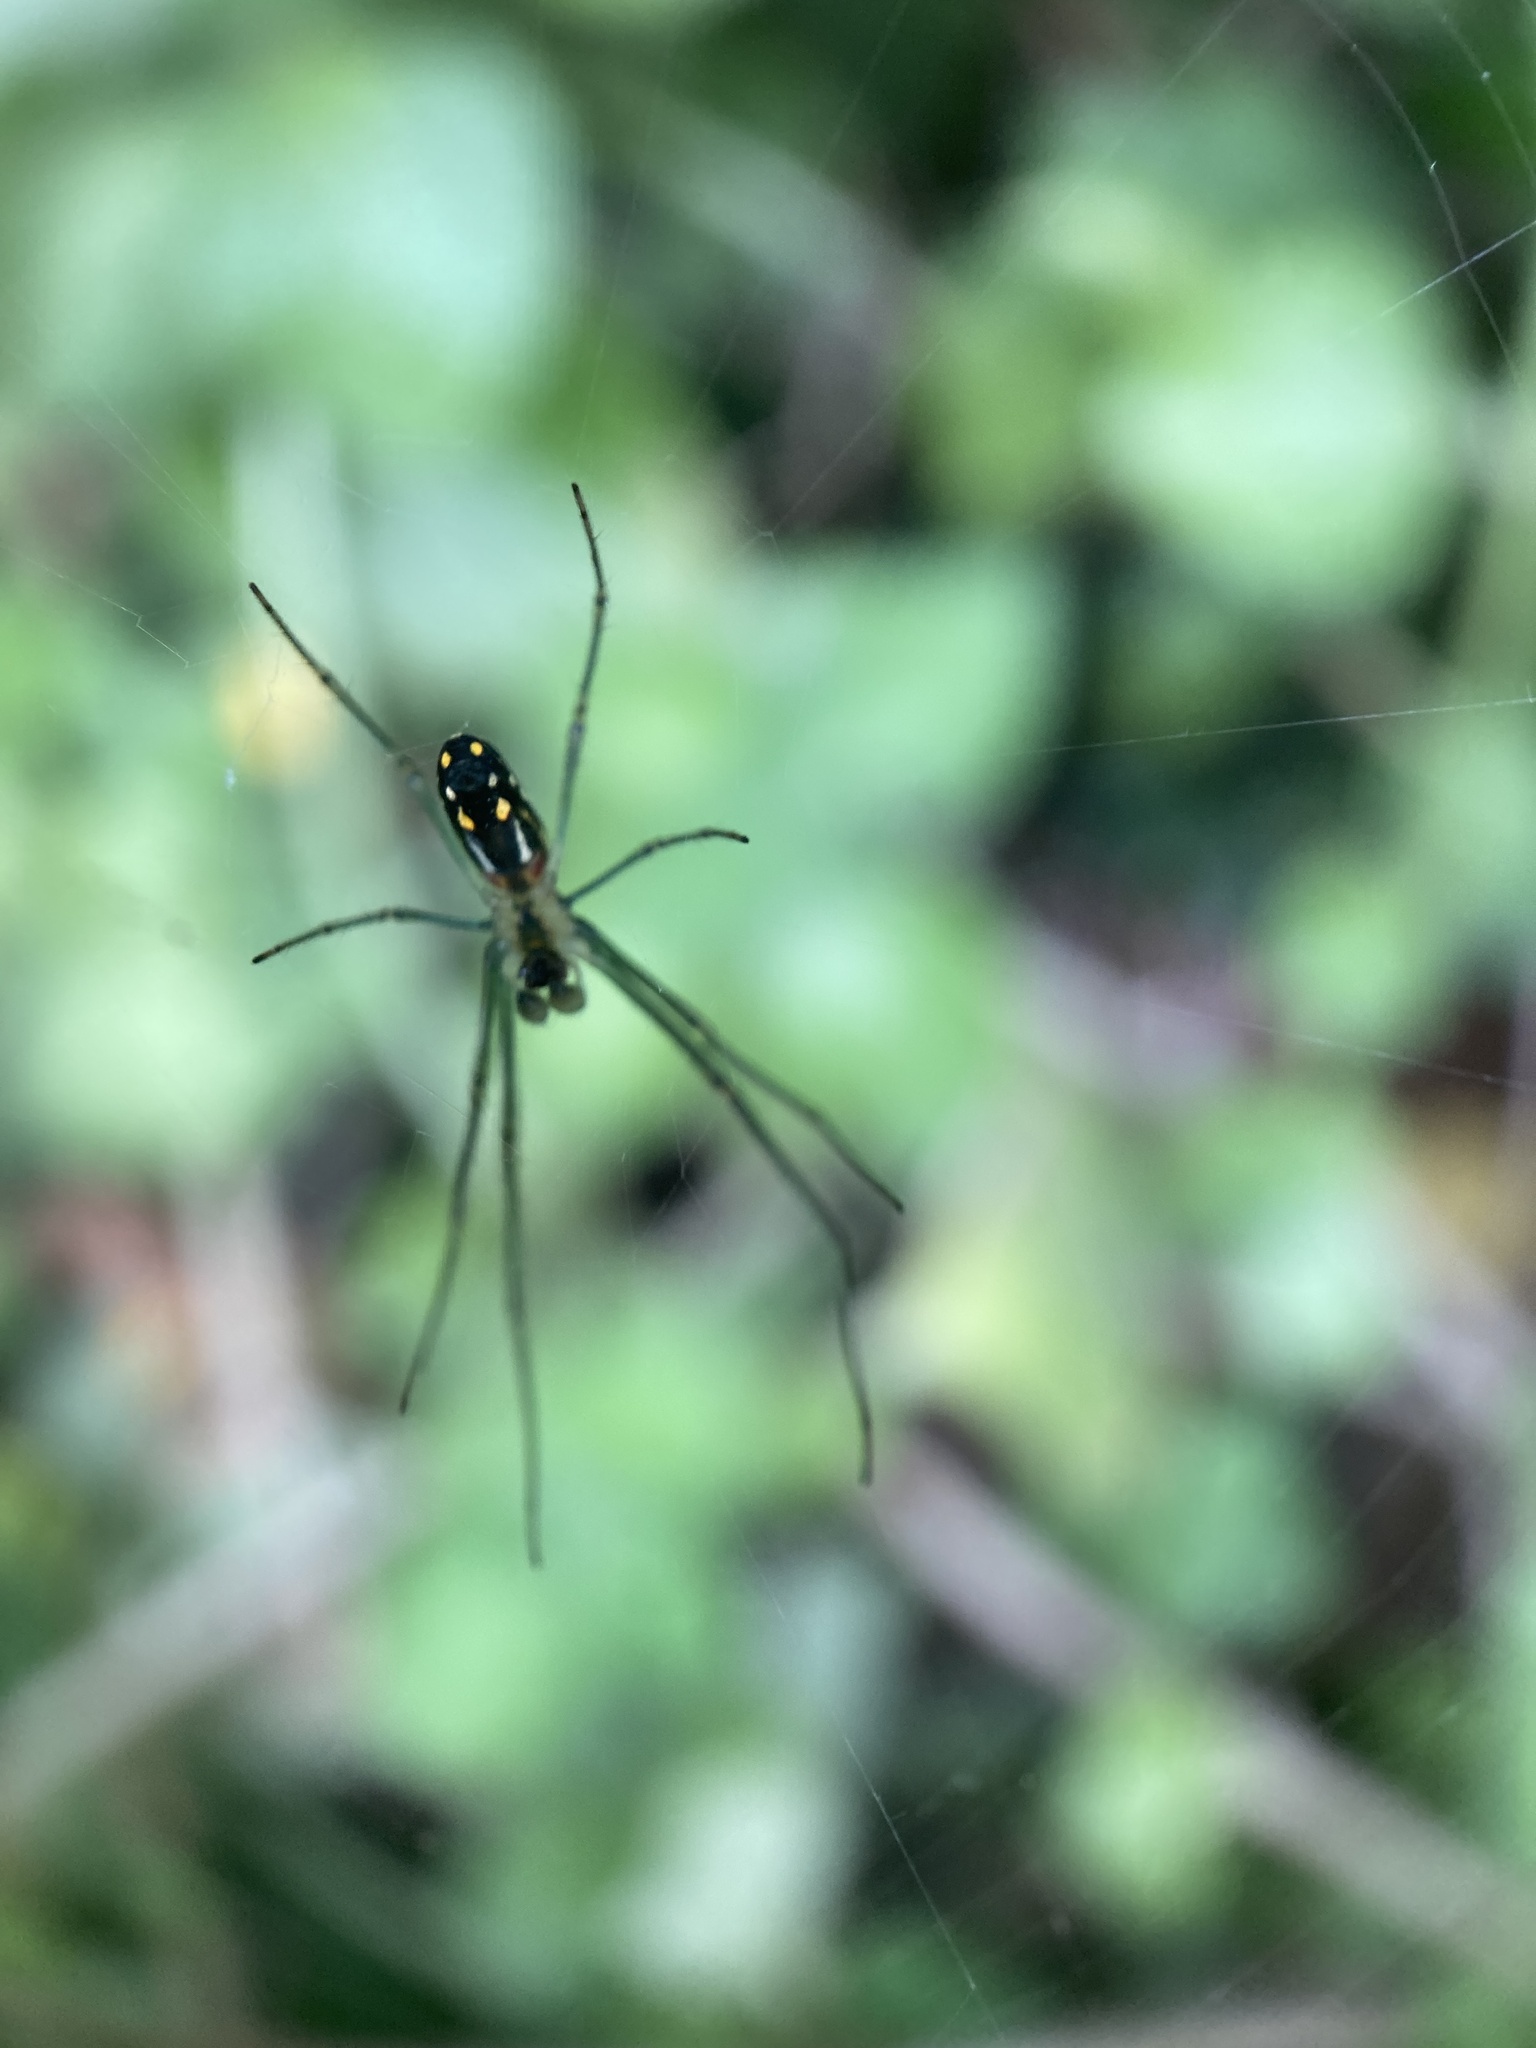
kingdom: Animalia
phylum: Arthropoda
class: Arachnida
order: Araneae
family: Tetragnathidae
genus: Leucauge
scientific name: Leucauge argyra
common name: Longjawed orb weavers
